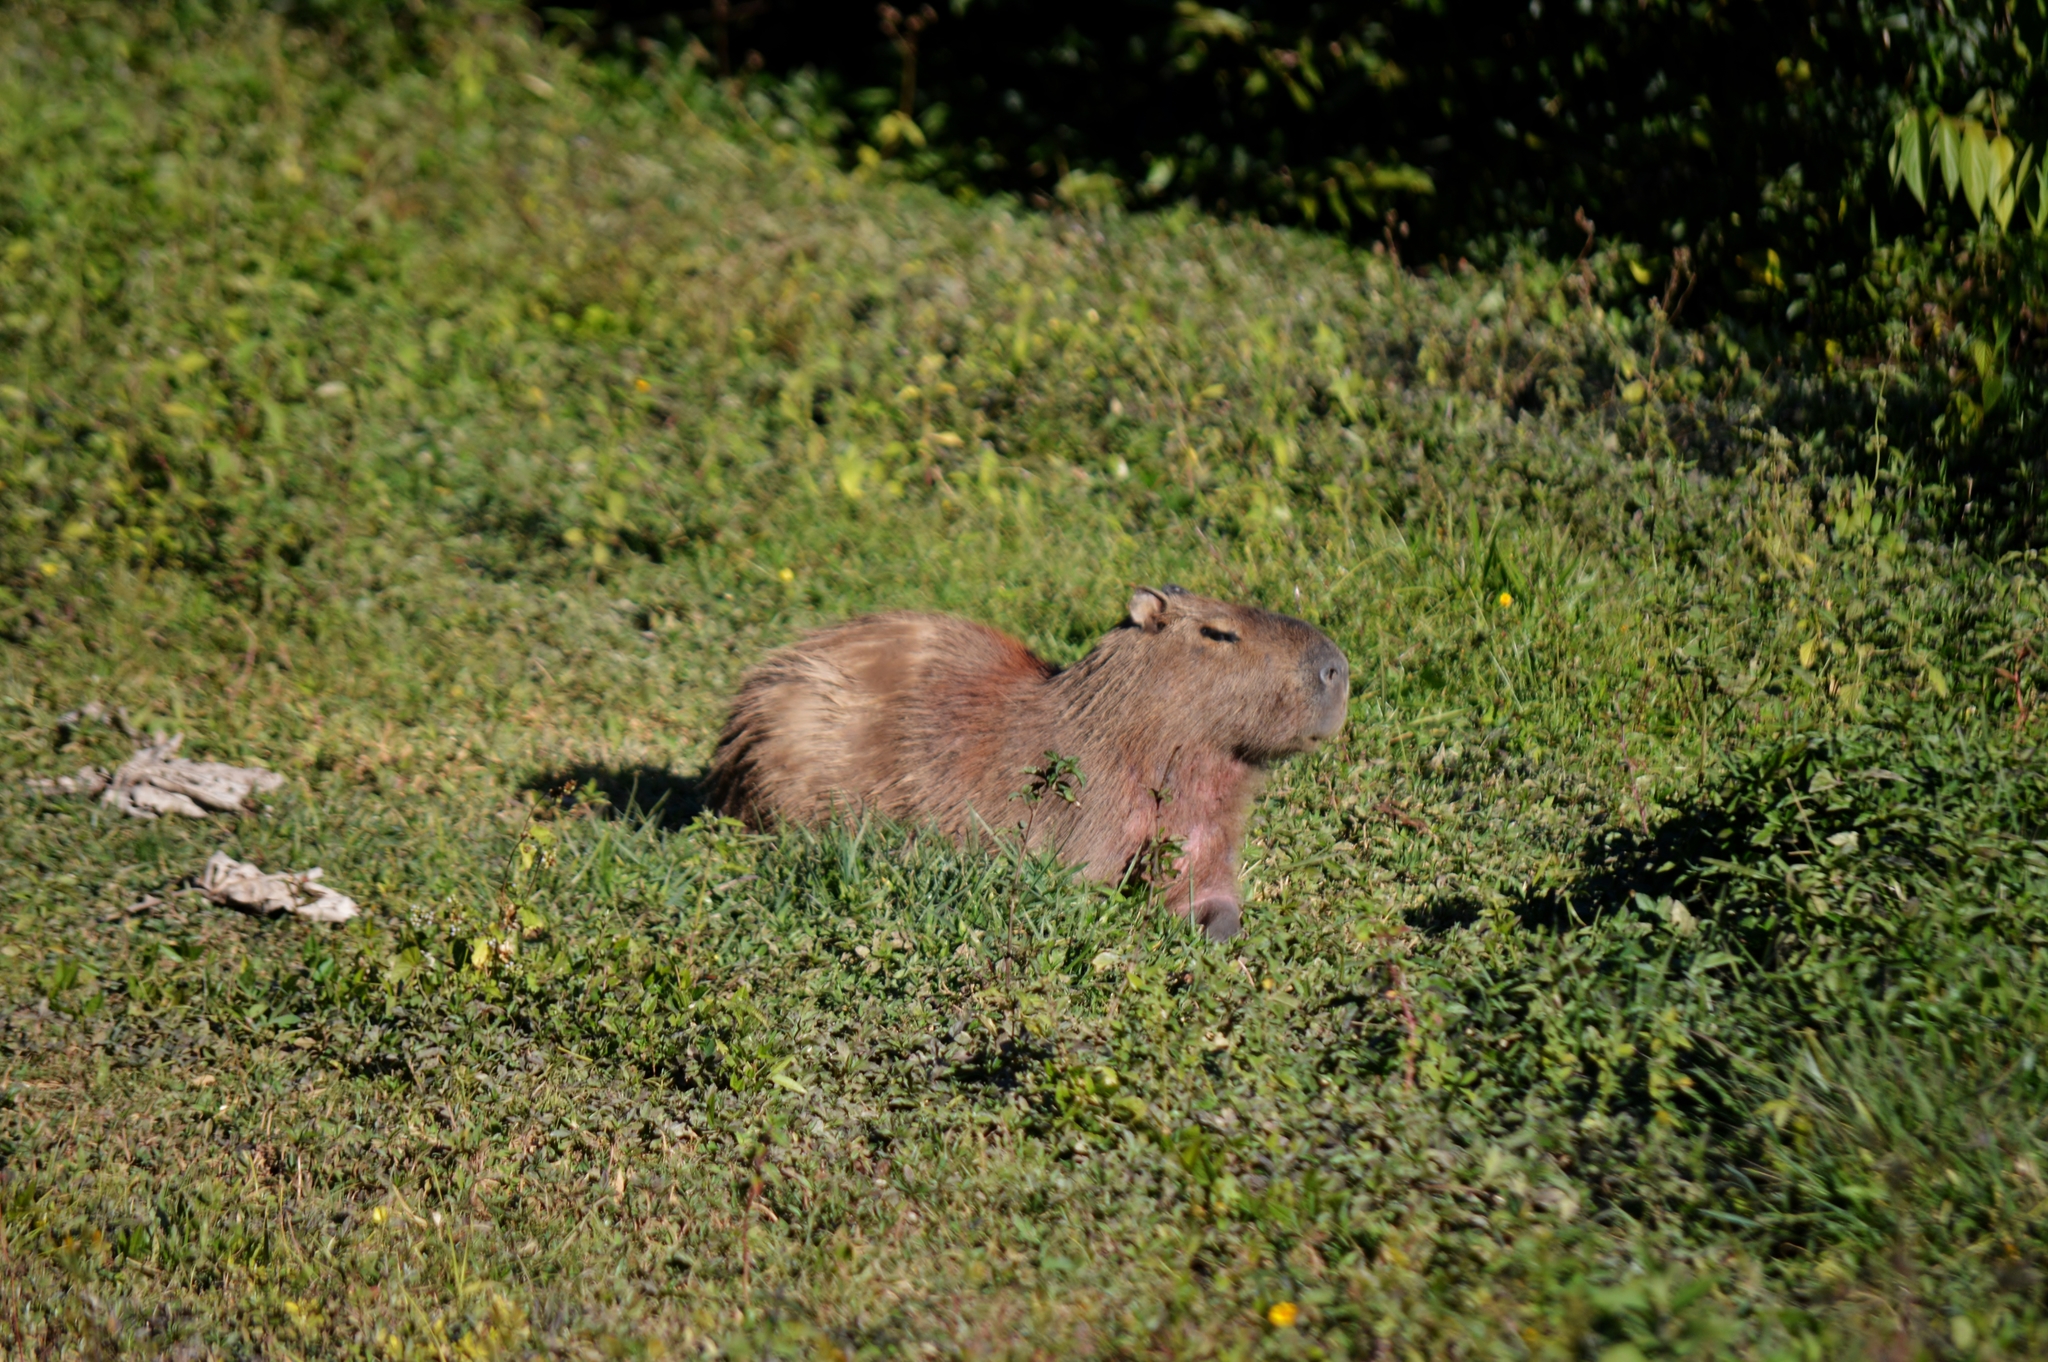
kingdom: Animalia
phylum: Chordata
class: Mammalia
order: Rodentia
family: Caviidae
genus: Hydrochoerus
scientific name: Hydrochoerus hydrochaeris
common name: Capybara
